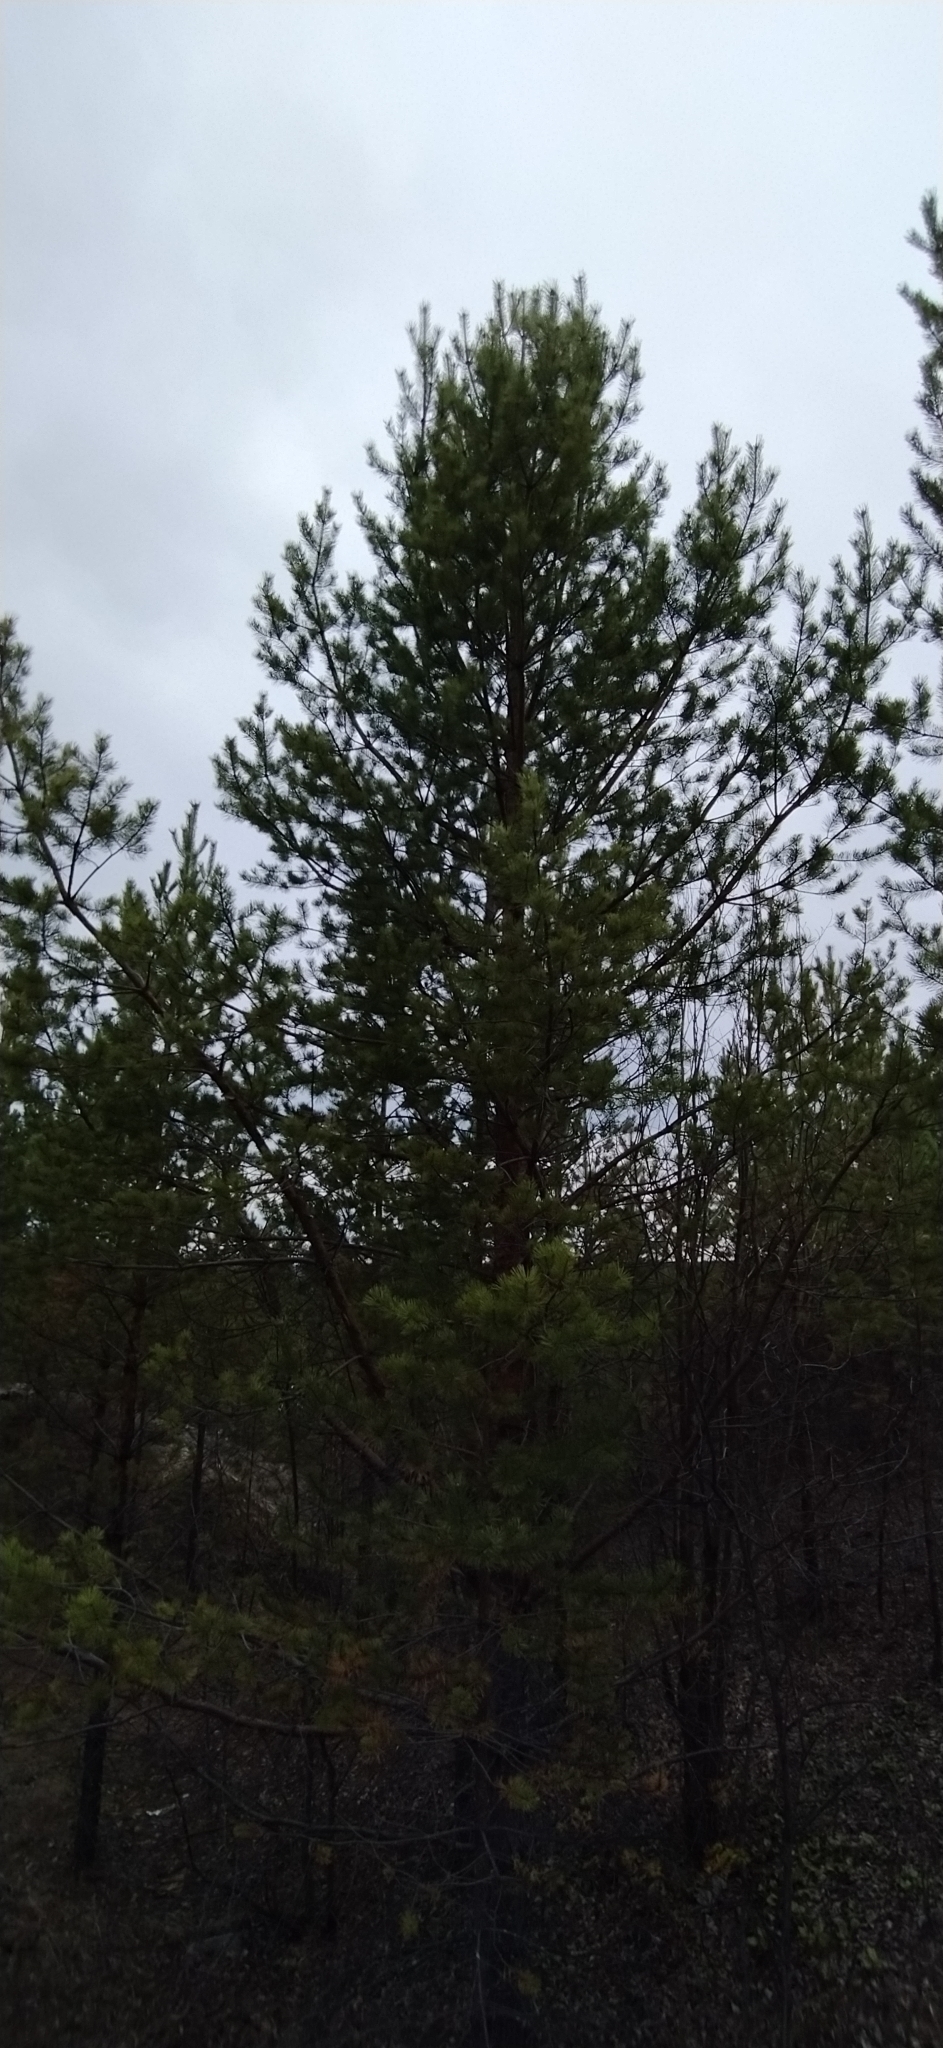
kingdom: Plantae
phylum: Tracheophyta
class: Pinopsida
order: Pinales
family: Pinaceae
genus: Pinus
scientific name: Pinus sylvestris
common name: Scots pine
